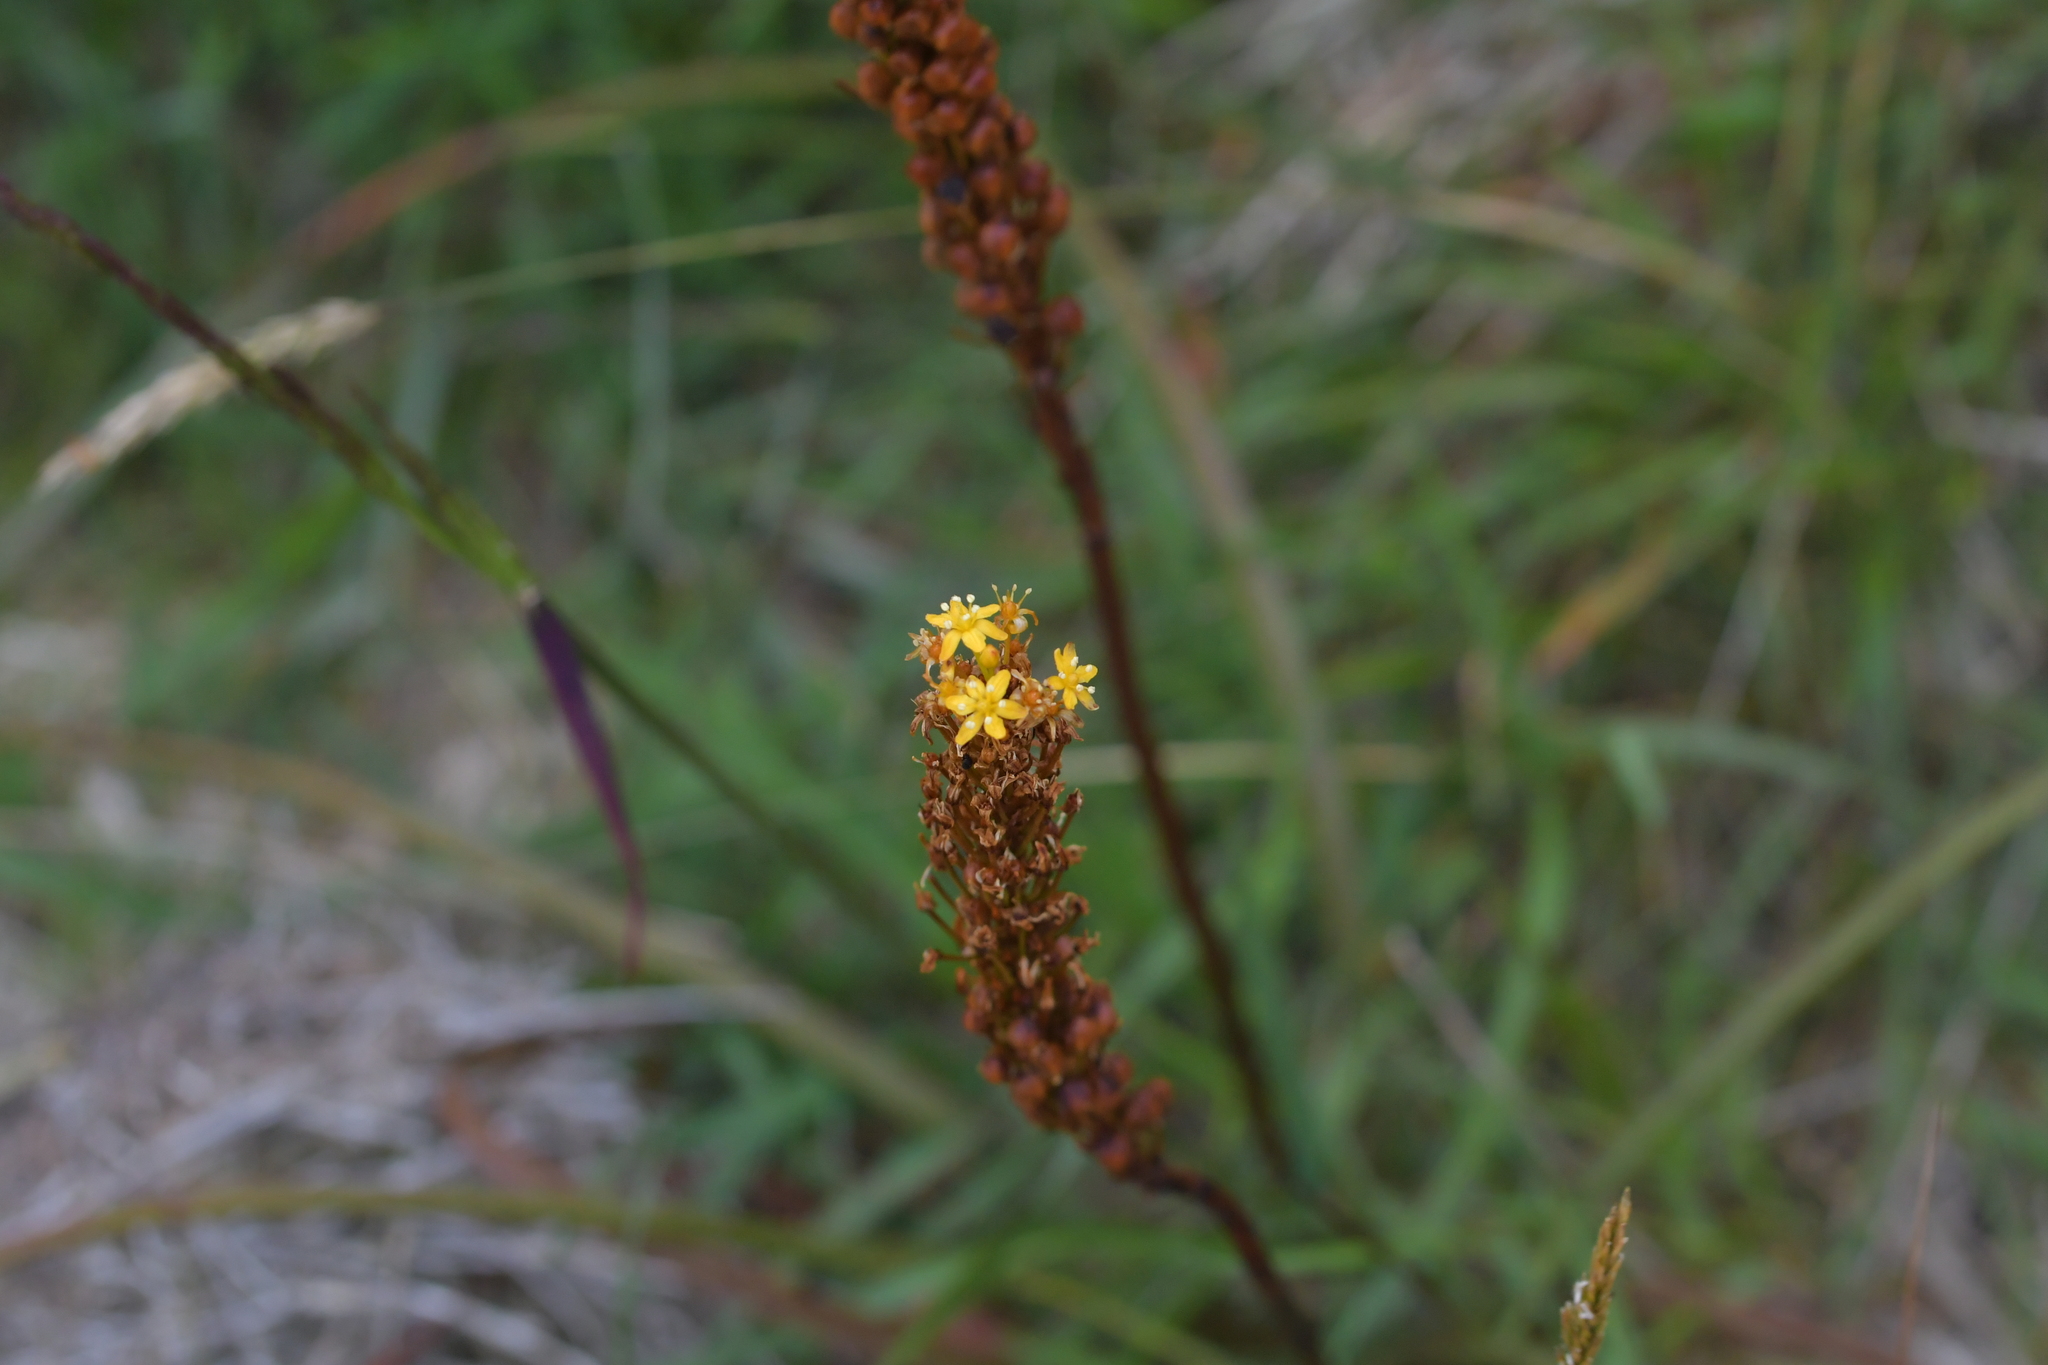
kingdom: Plantae
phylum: Tracheophyta
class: Liliopsida
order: Asparagales
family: Asphodelaceae
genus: Bulbinella
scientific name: Bulbinella angustifolia
